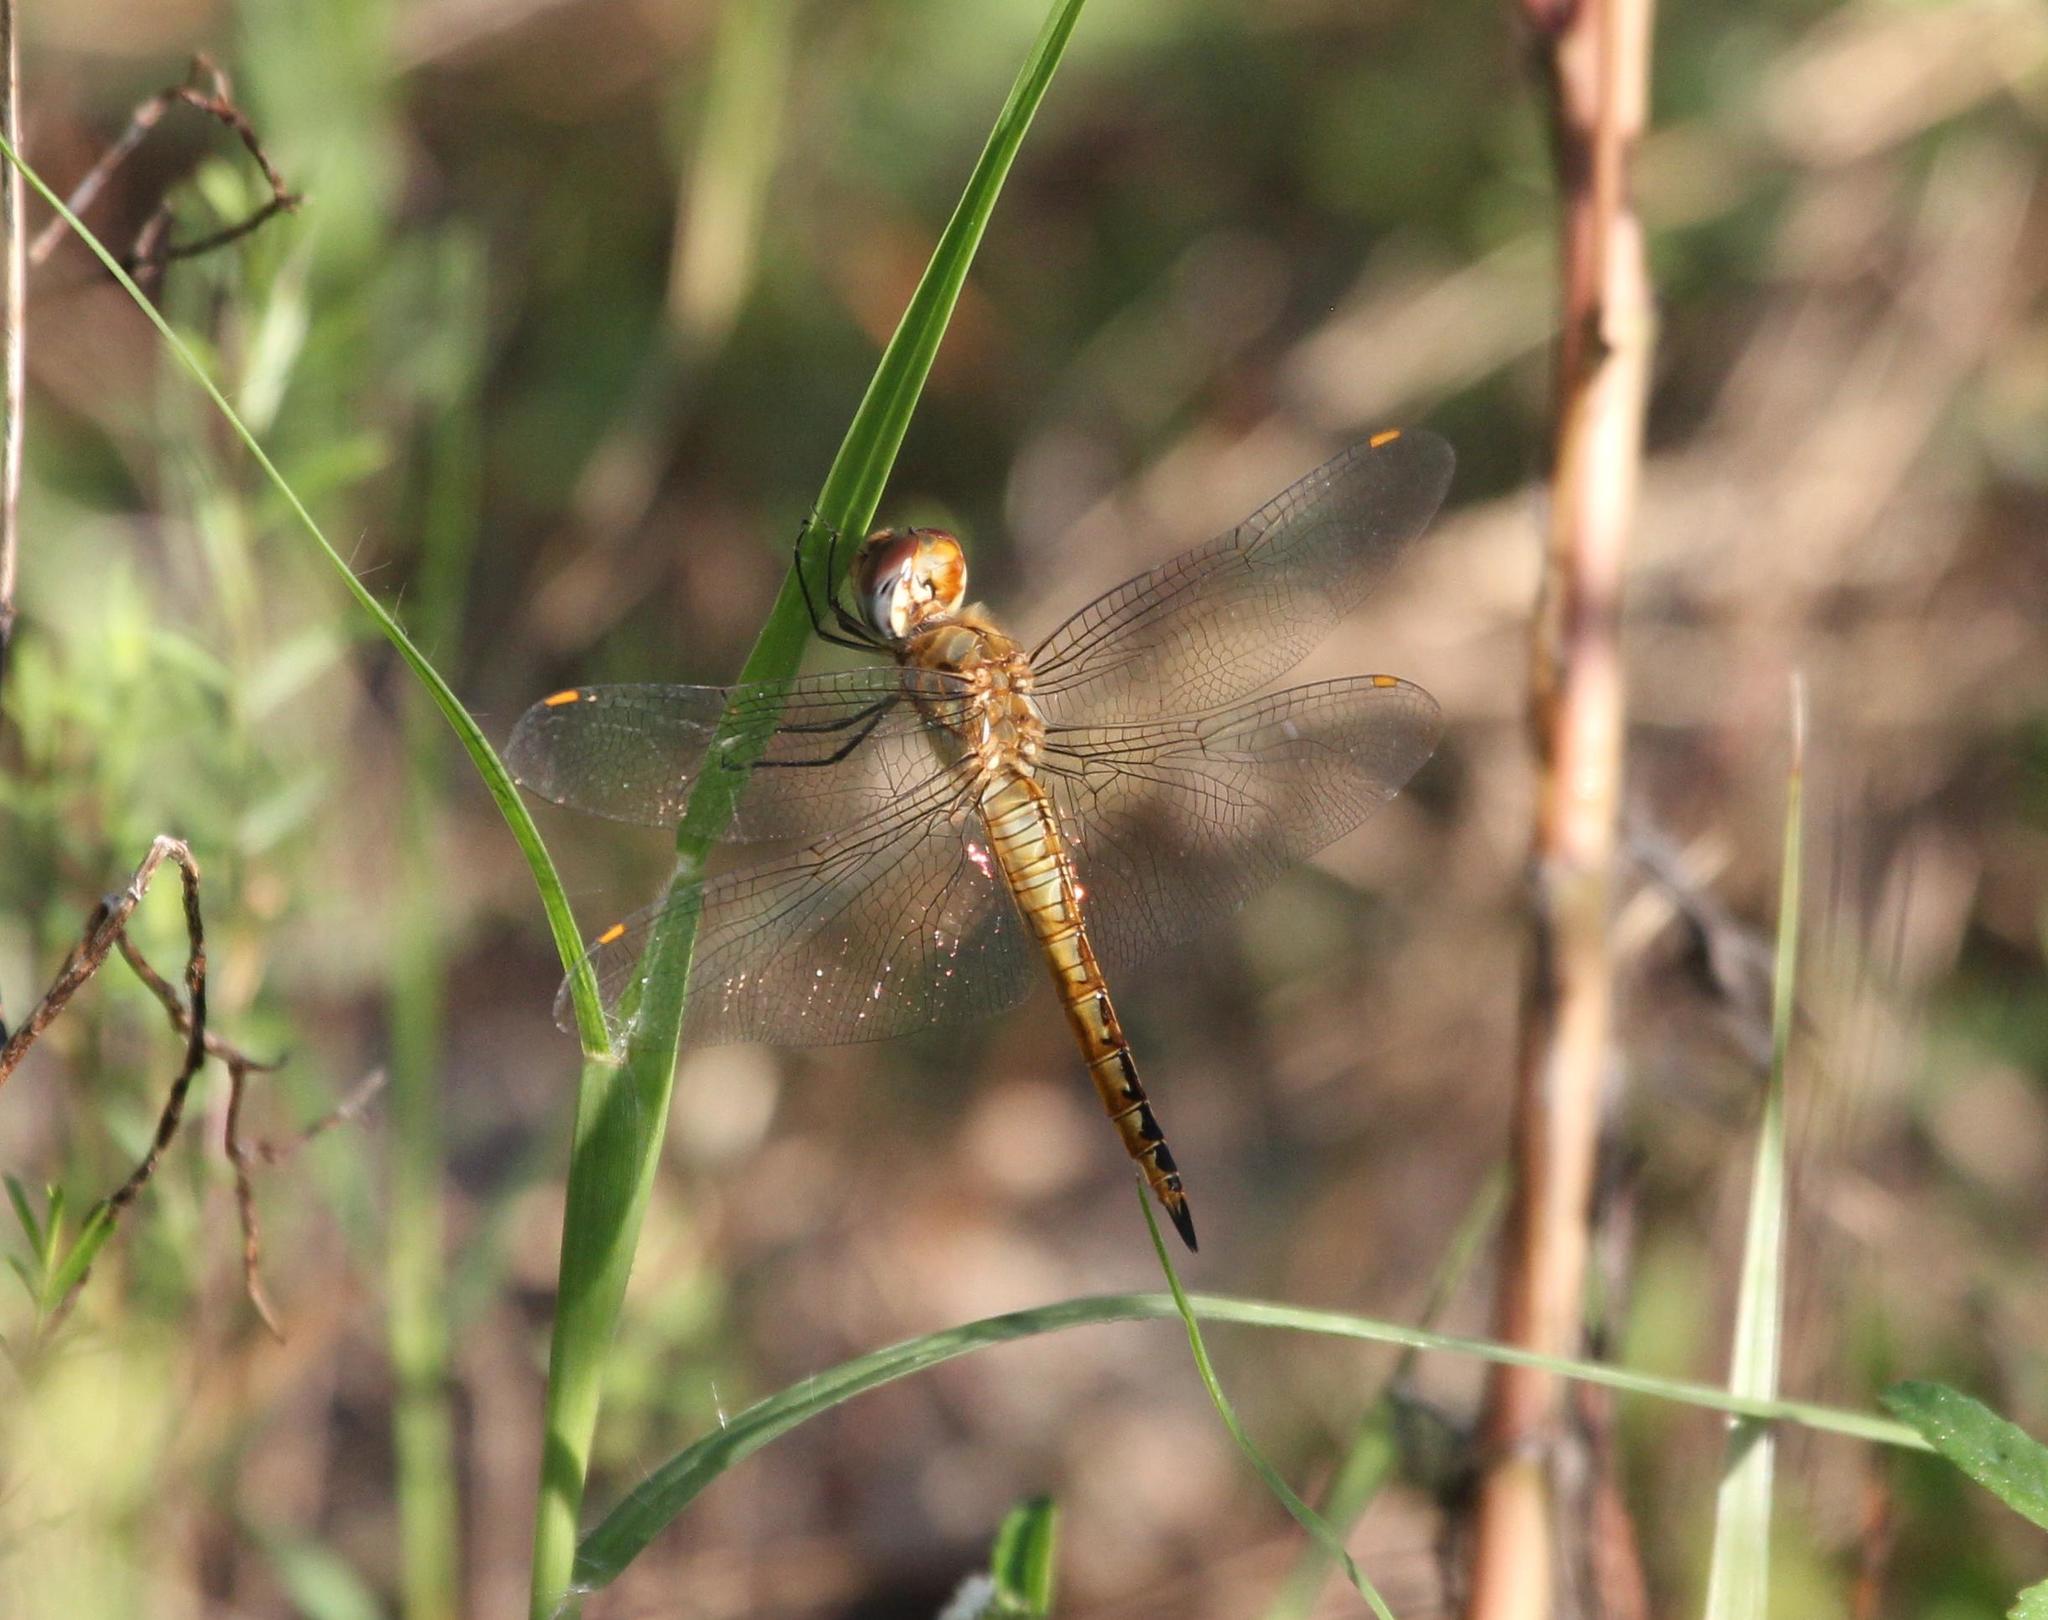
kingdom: Animalia
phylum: Arthropoda
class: Insecta
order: Odonata
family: Libellulidae
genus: Pantala
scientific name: Pantala flavescens
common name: Wandering glider
